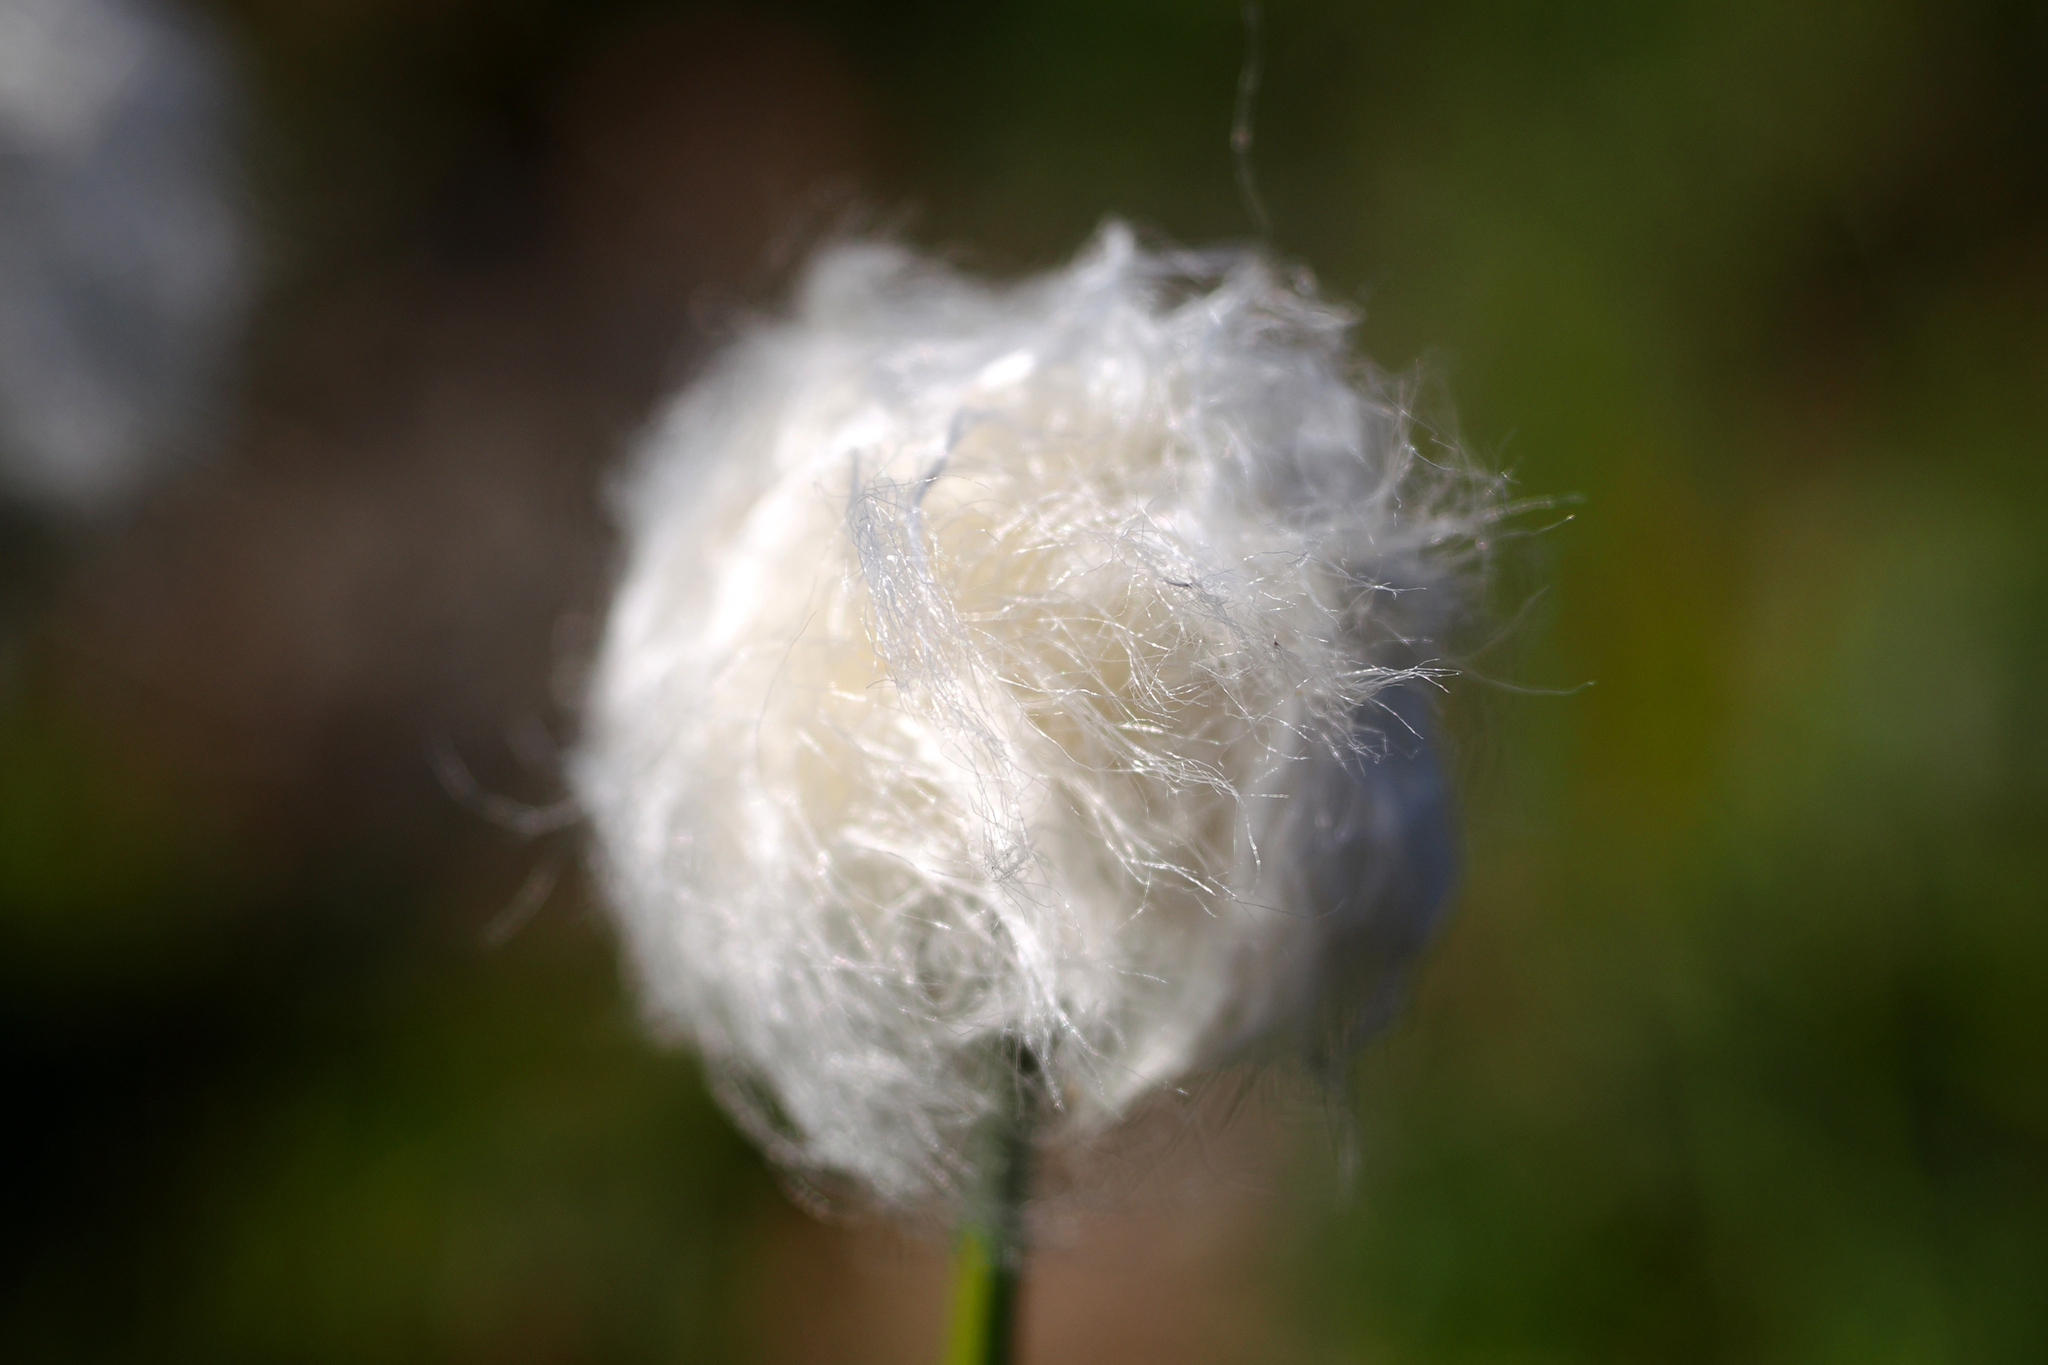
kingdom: Plantae
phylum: Tracheophyta
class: Liliopsida
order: Poales
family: Cyperaceae
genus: Eriophorum
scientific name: Eriophorum scheuchzeri
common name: Scheuchzer's cottongrass
